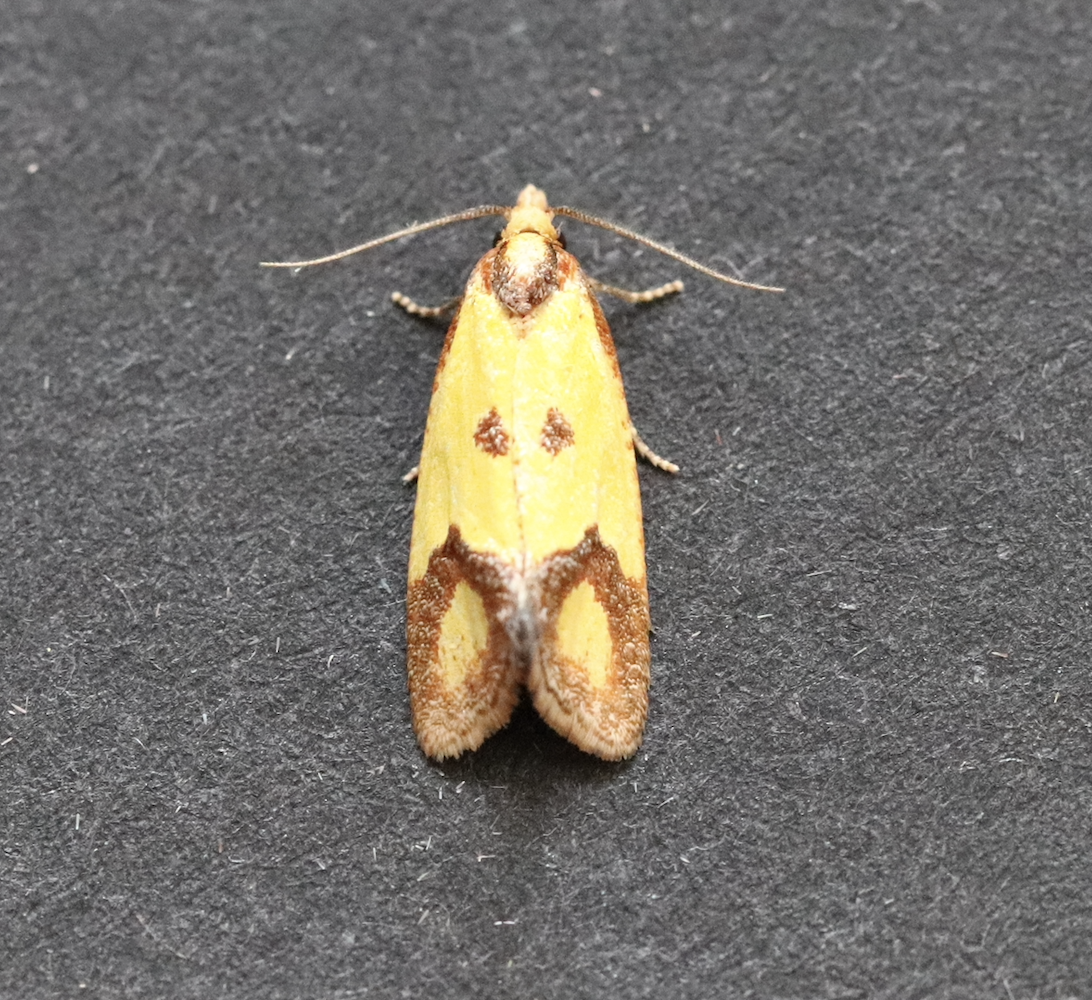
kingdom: Animalia
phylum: Arthropoda
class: Insecta
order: Lepidoptera
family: Tortricidae
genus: Agapeta
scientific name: Agapeta zoegana
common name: Sulfur knapweed root moth
